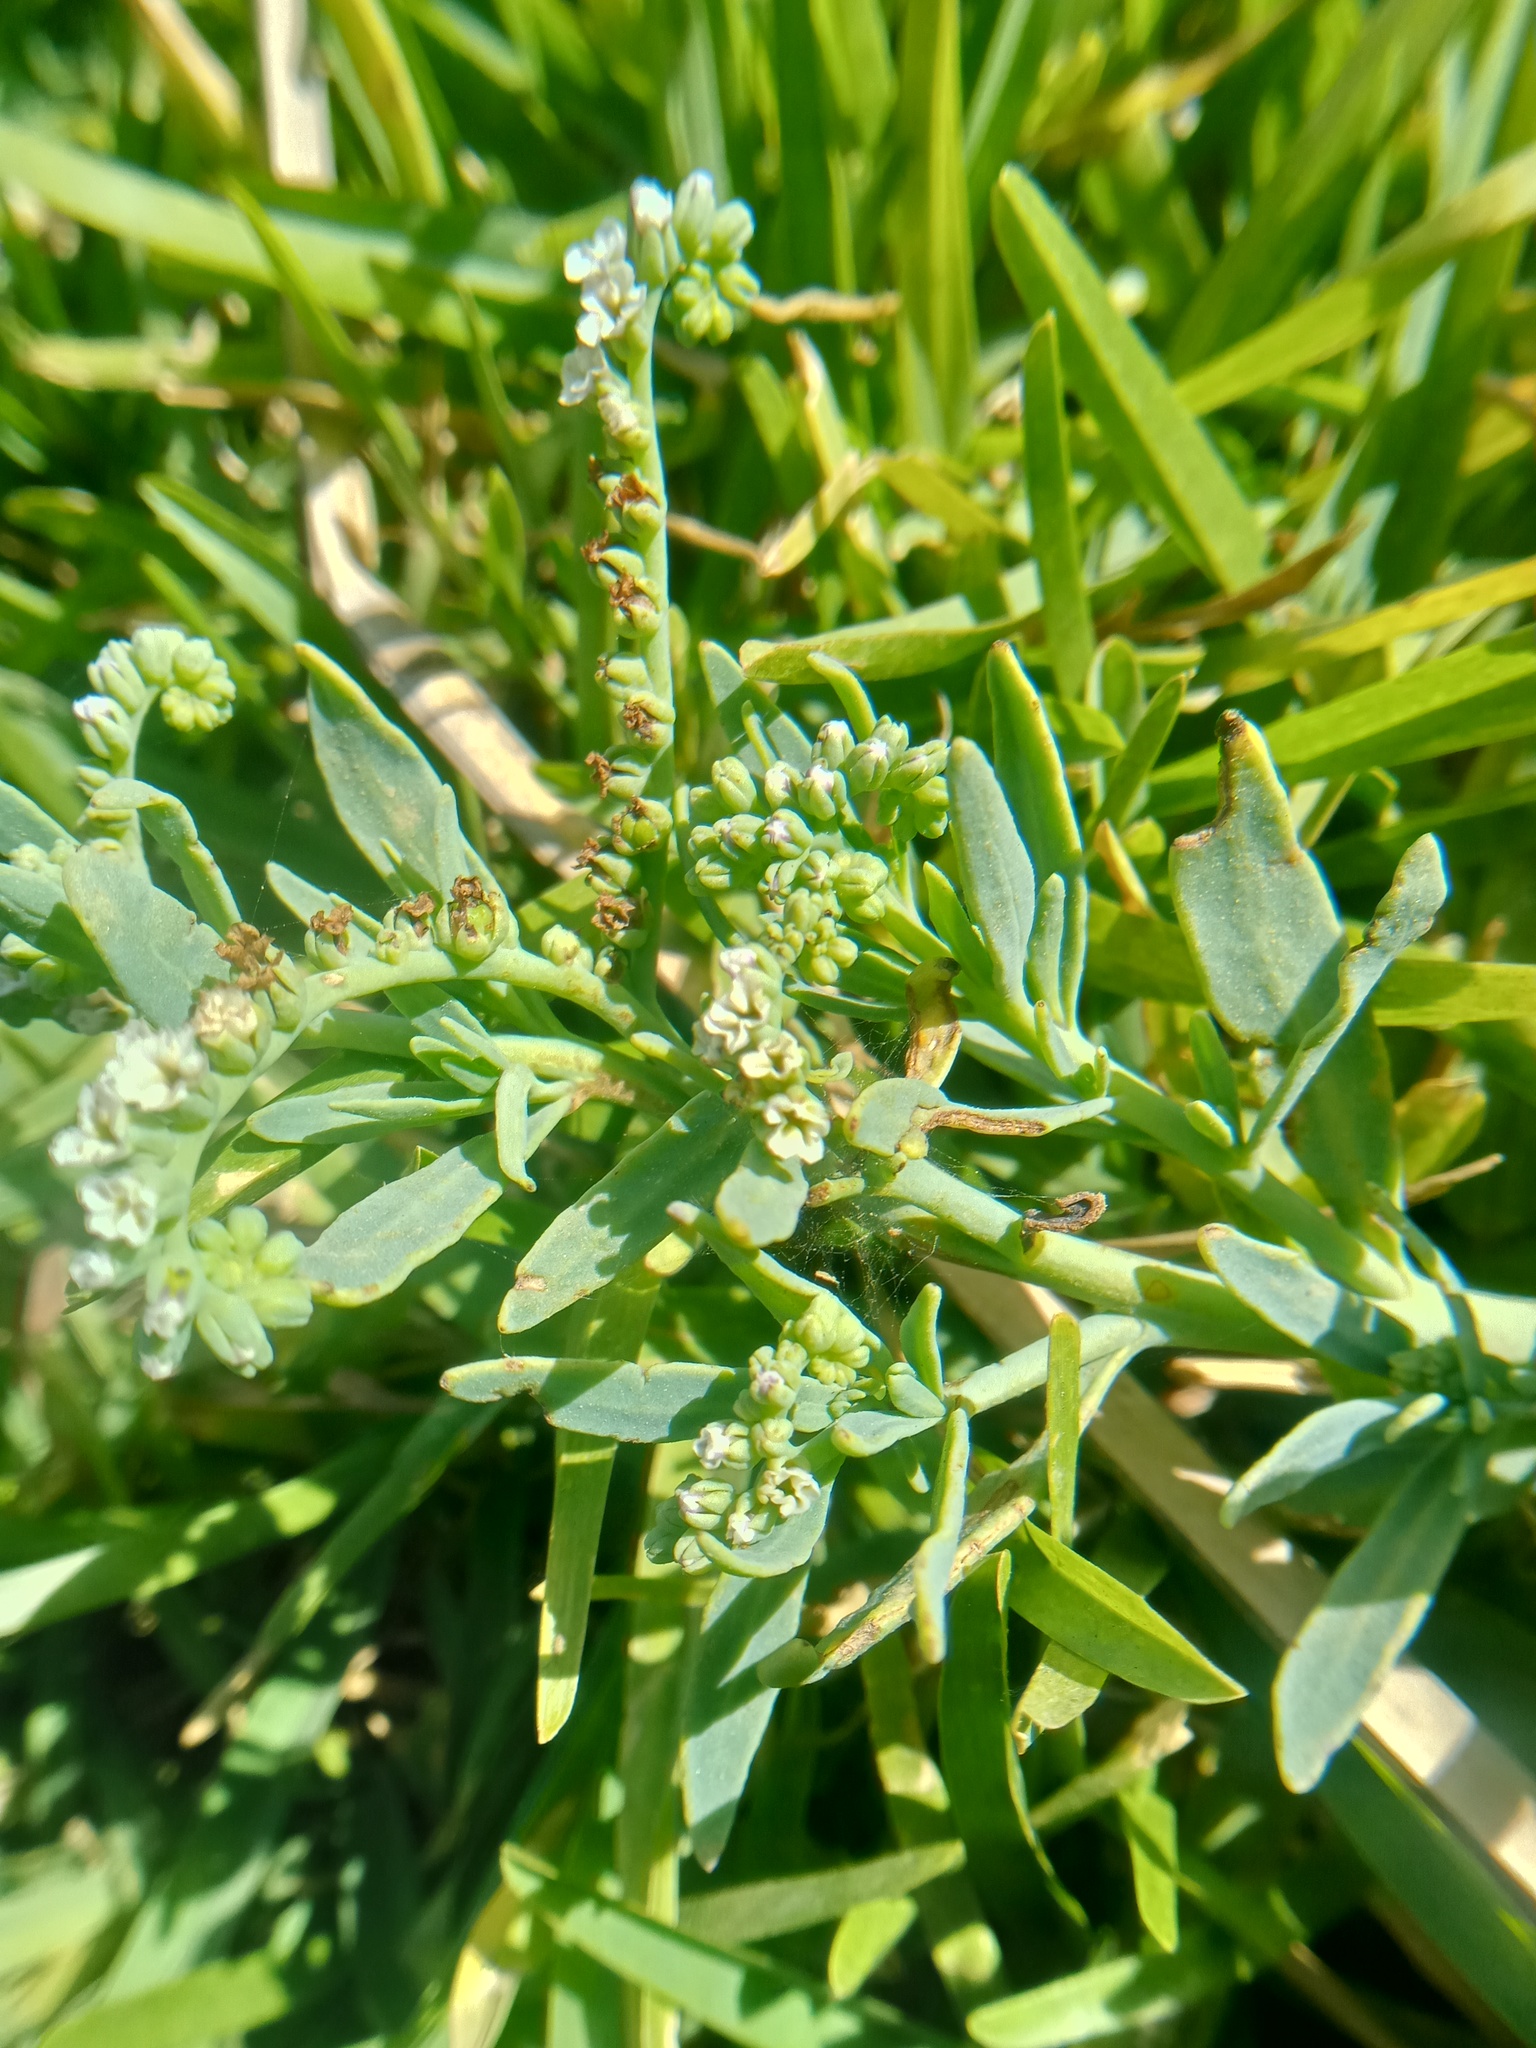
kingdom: Plantae
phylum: Tracheophyta
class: Magnoliopsida
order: Boraginales
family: Heliotropiaceae
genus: Heliotropium
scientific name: Heliotropium curassavicum
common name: Seaside heliotrope
